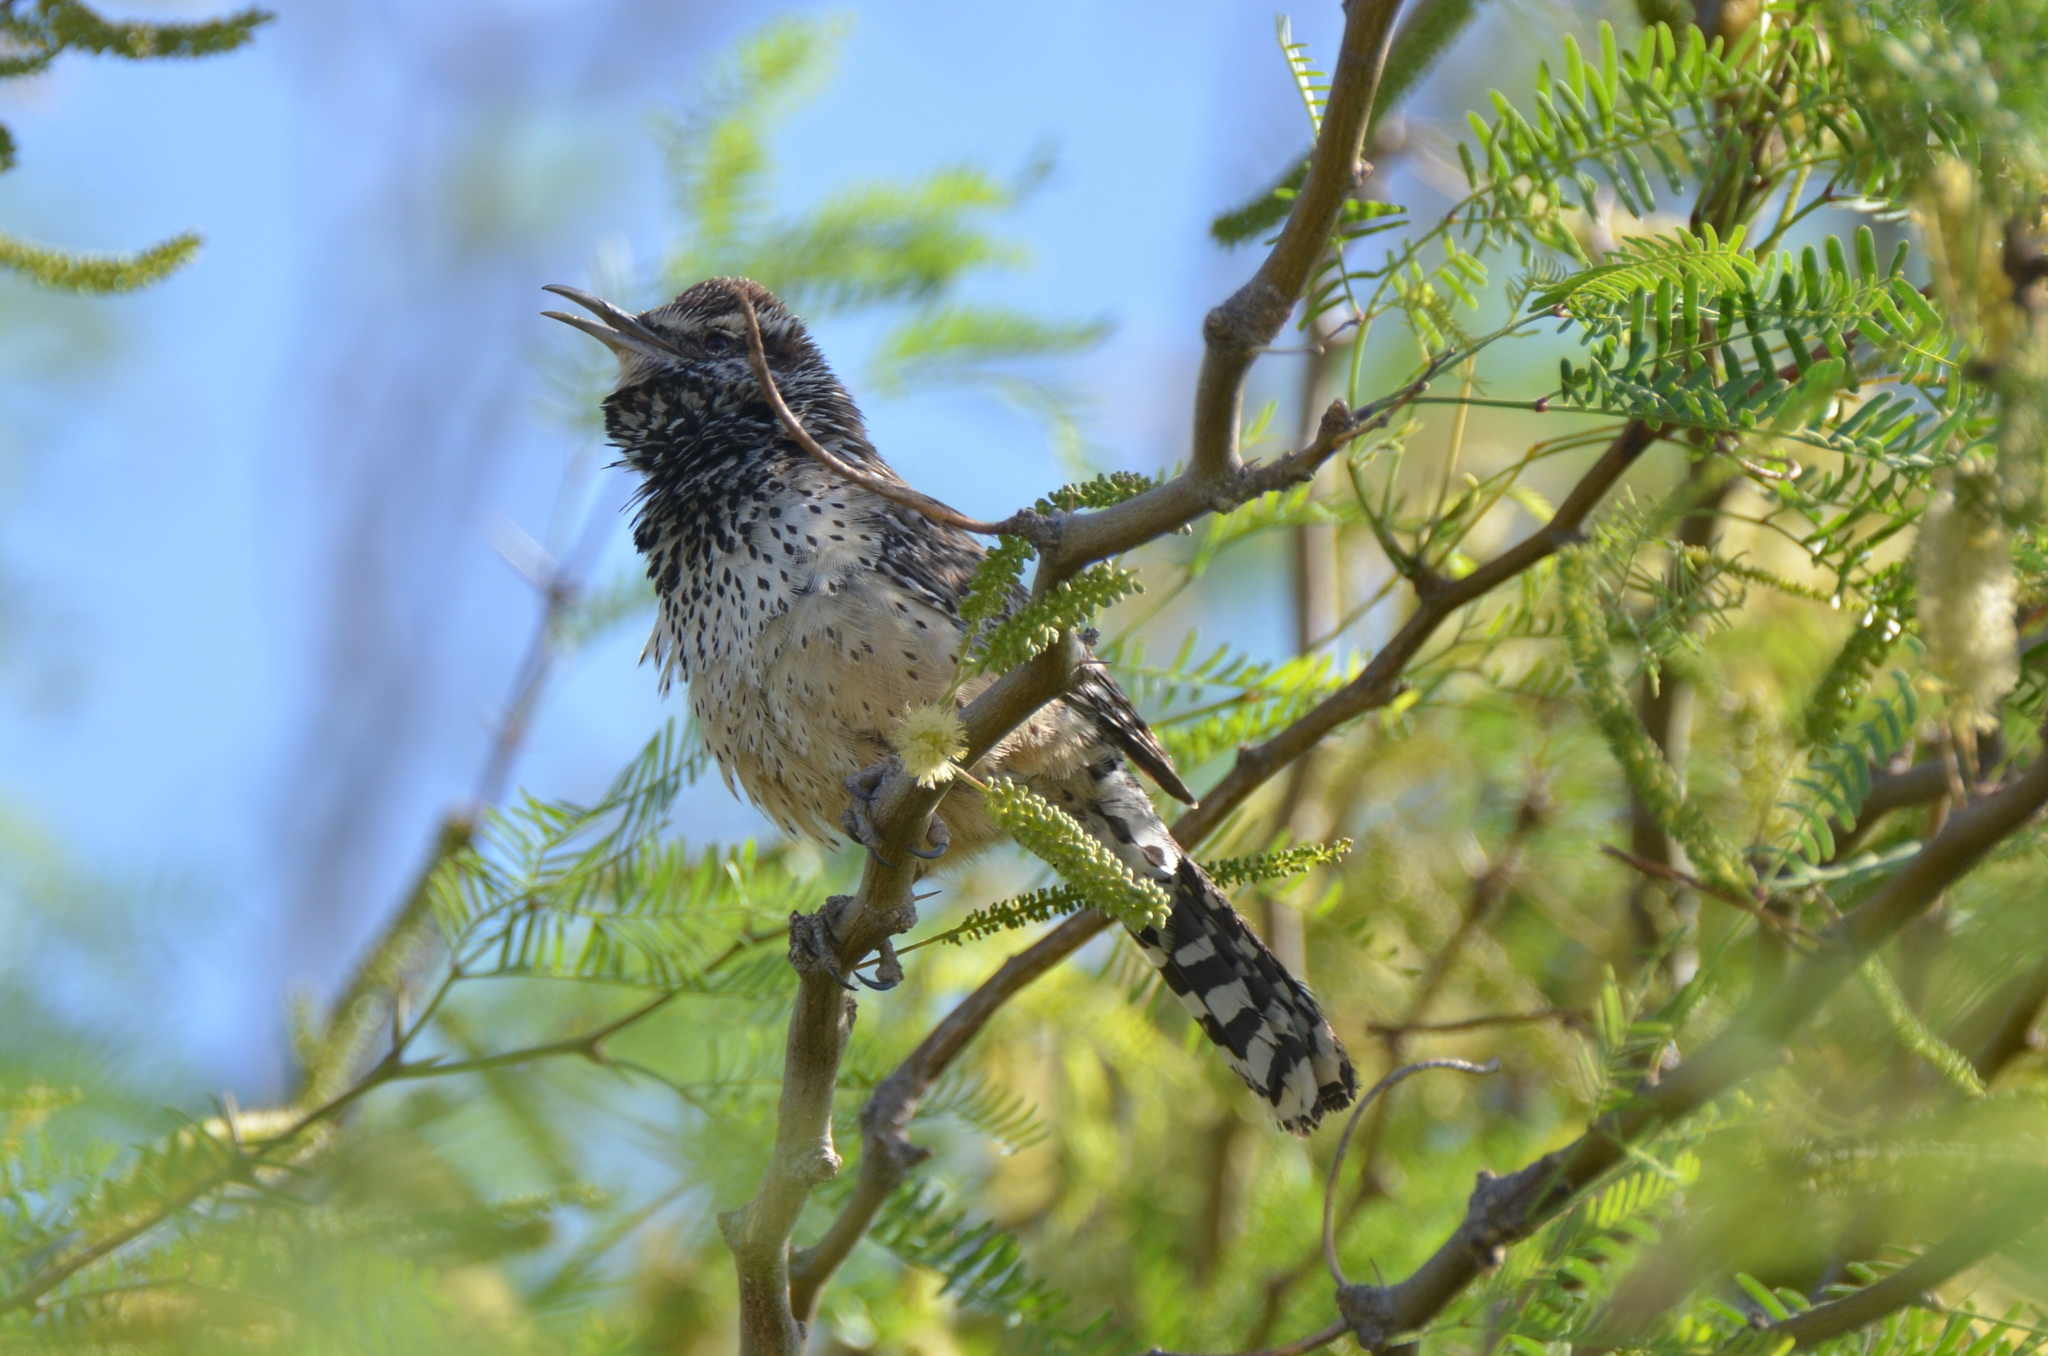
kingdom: Animalia
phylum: Chordata
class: Aves
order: Passeriformes
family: Troglodytidae
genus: Campylorhynchus
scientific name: Campylorhynchus brunneicapillus
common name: Cactus wren
